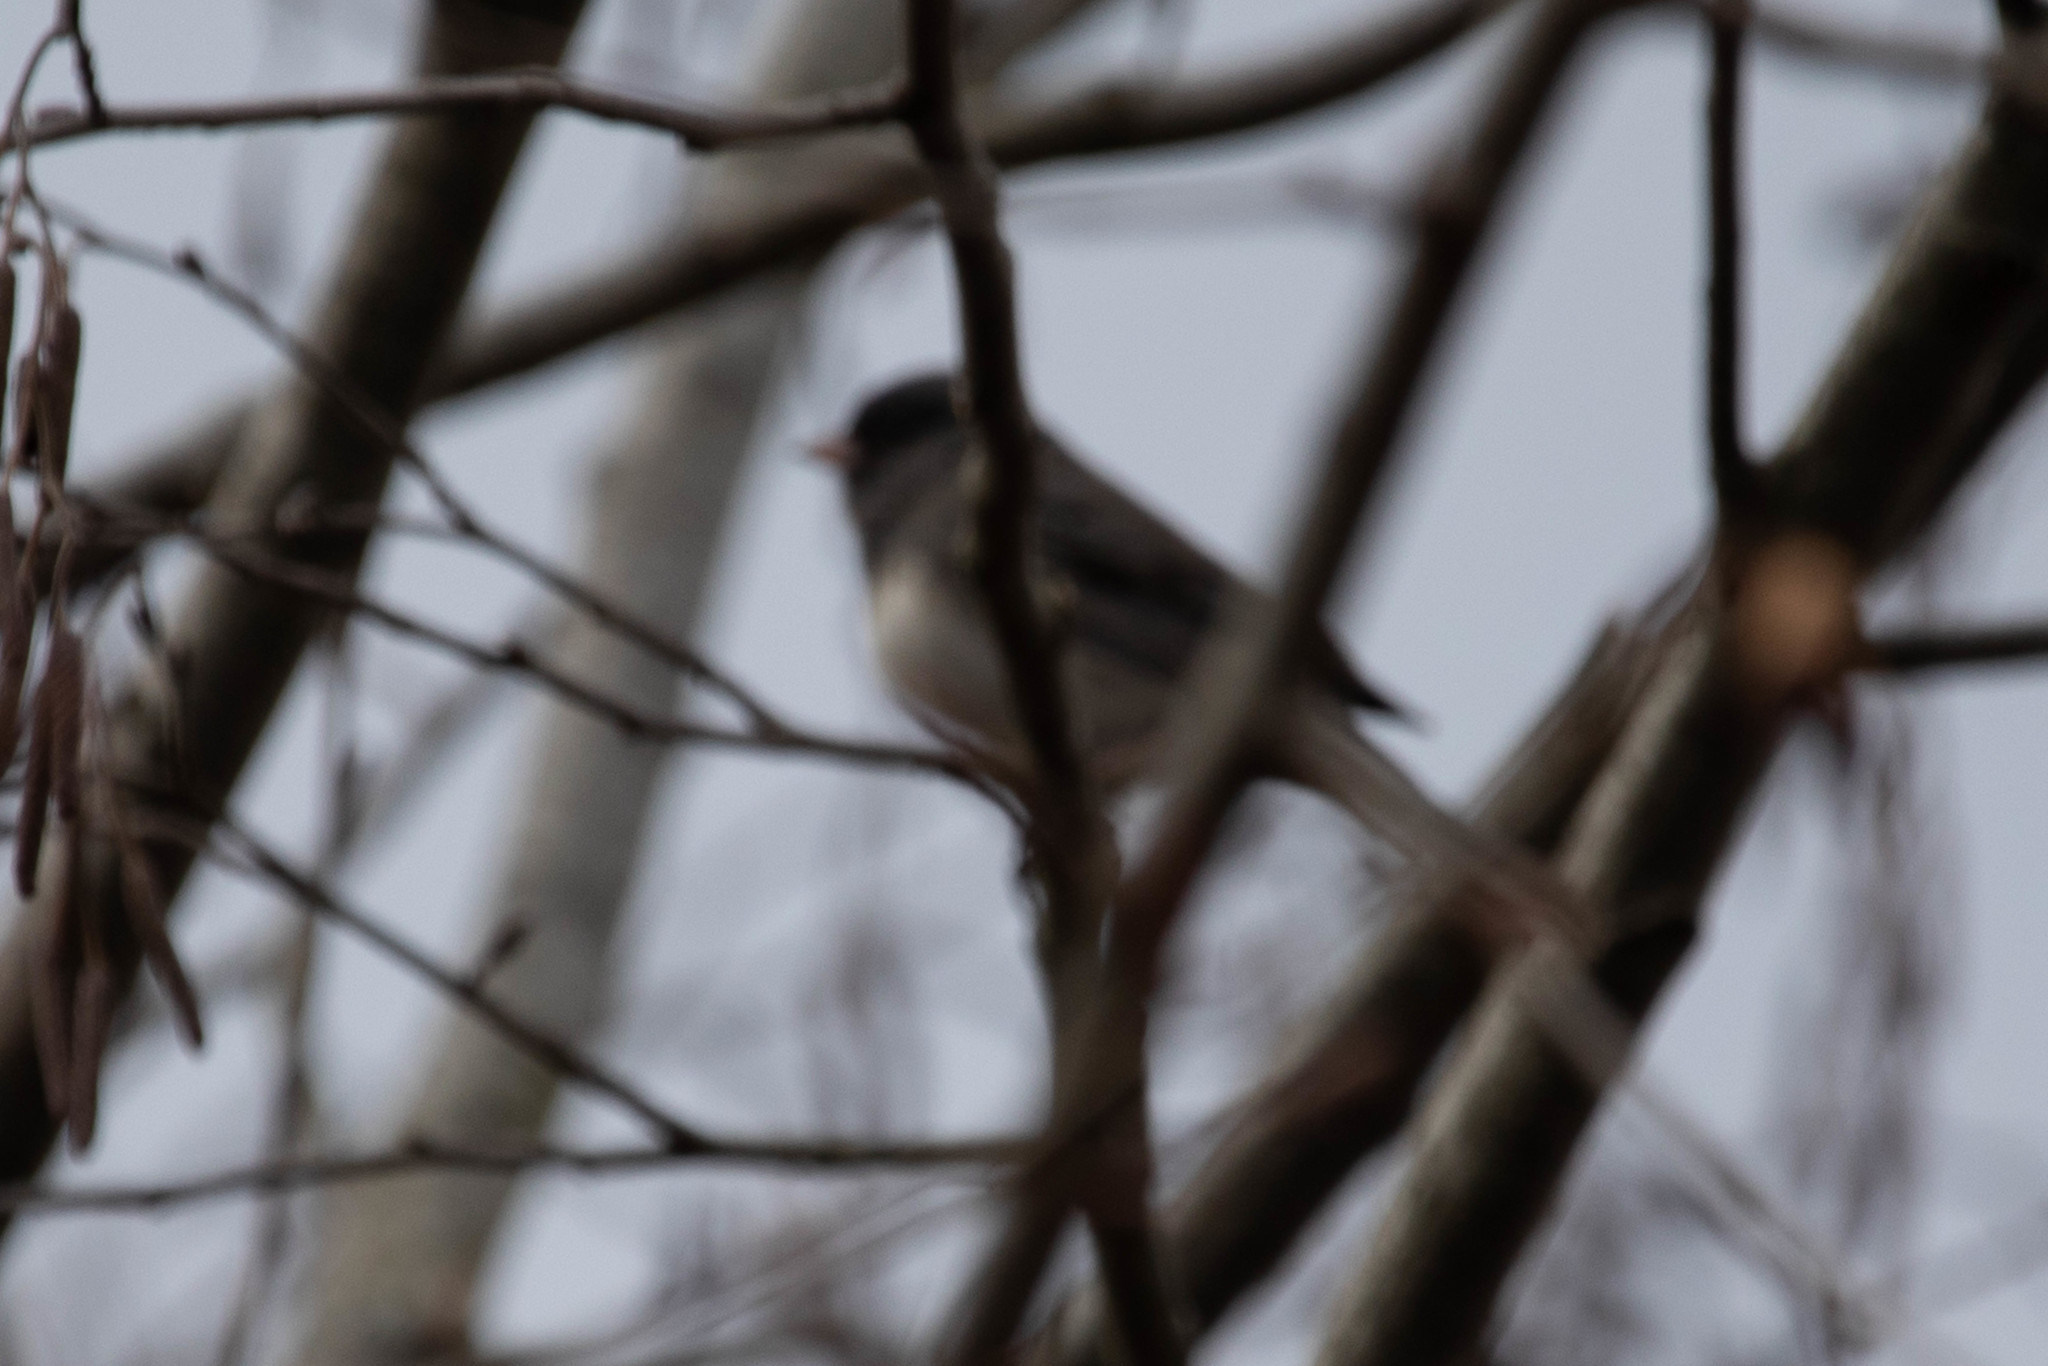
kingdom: Animalia
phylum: Chordata
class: Aves
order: Passeriformes
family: Passerellidae
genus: Junco
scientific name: Junco hyemalis
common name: Dark-eyed junco
